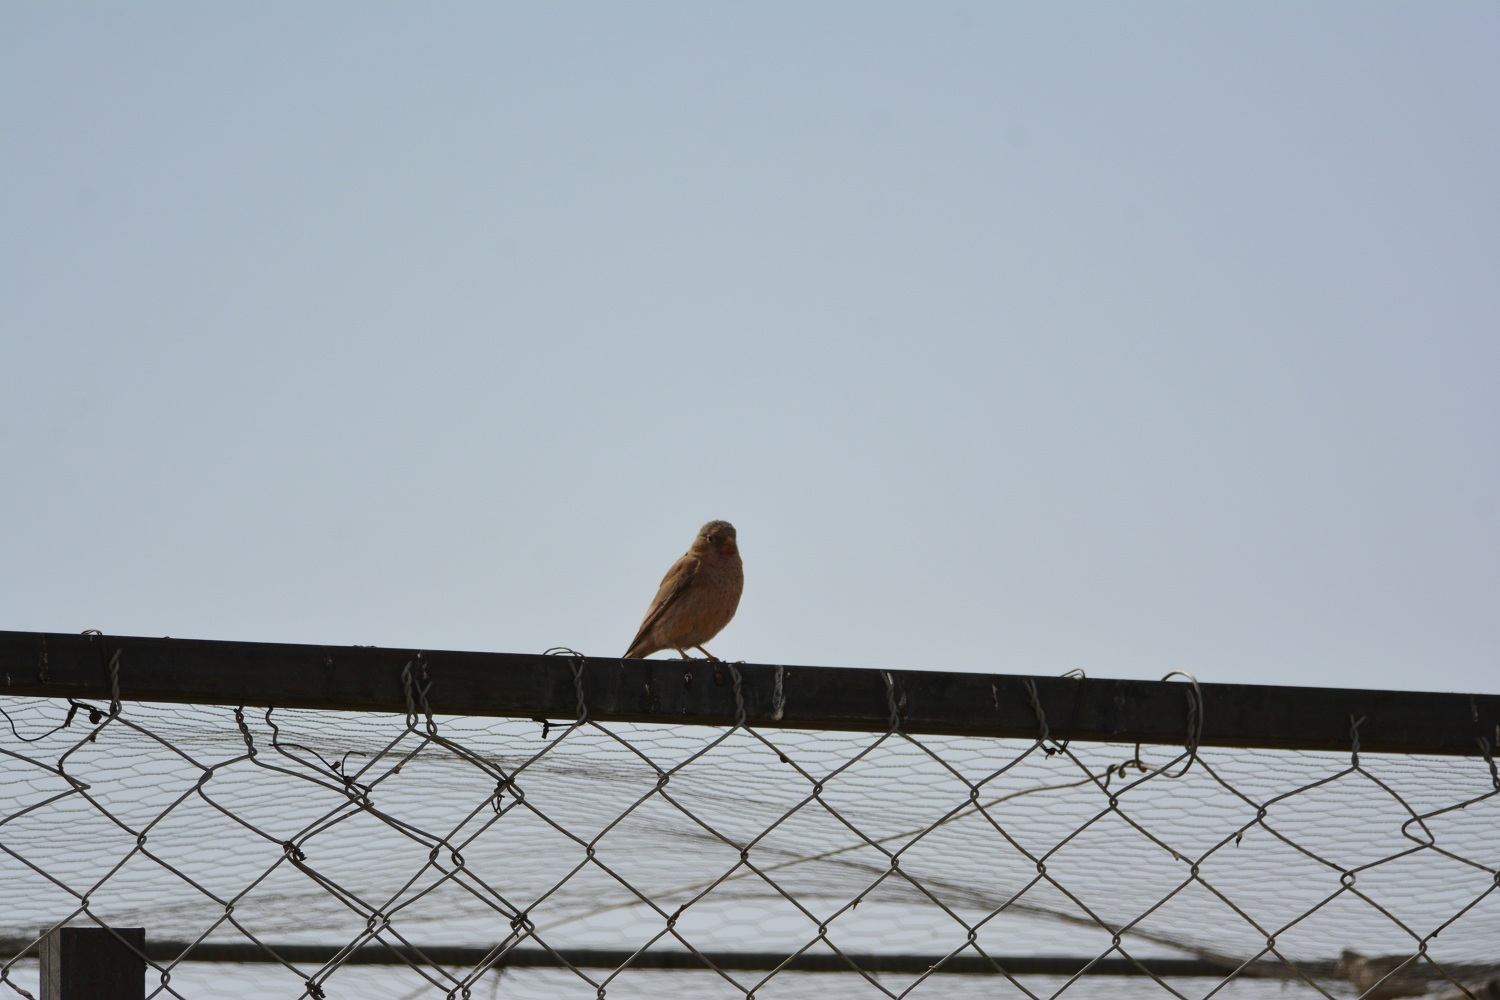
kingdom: Animalia
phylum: Chordata
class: Aves
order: Passeriformes
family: Fringillidae
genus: Bucanetes
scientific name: Bucanetes githagineus
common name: Trumpeter finch
